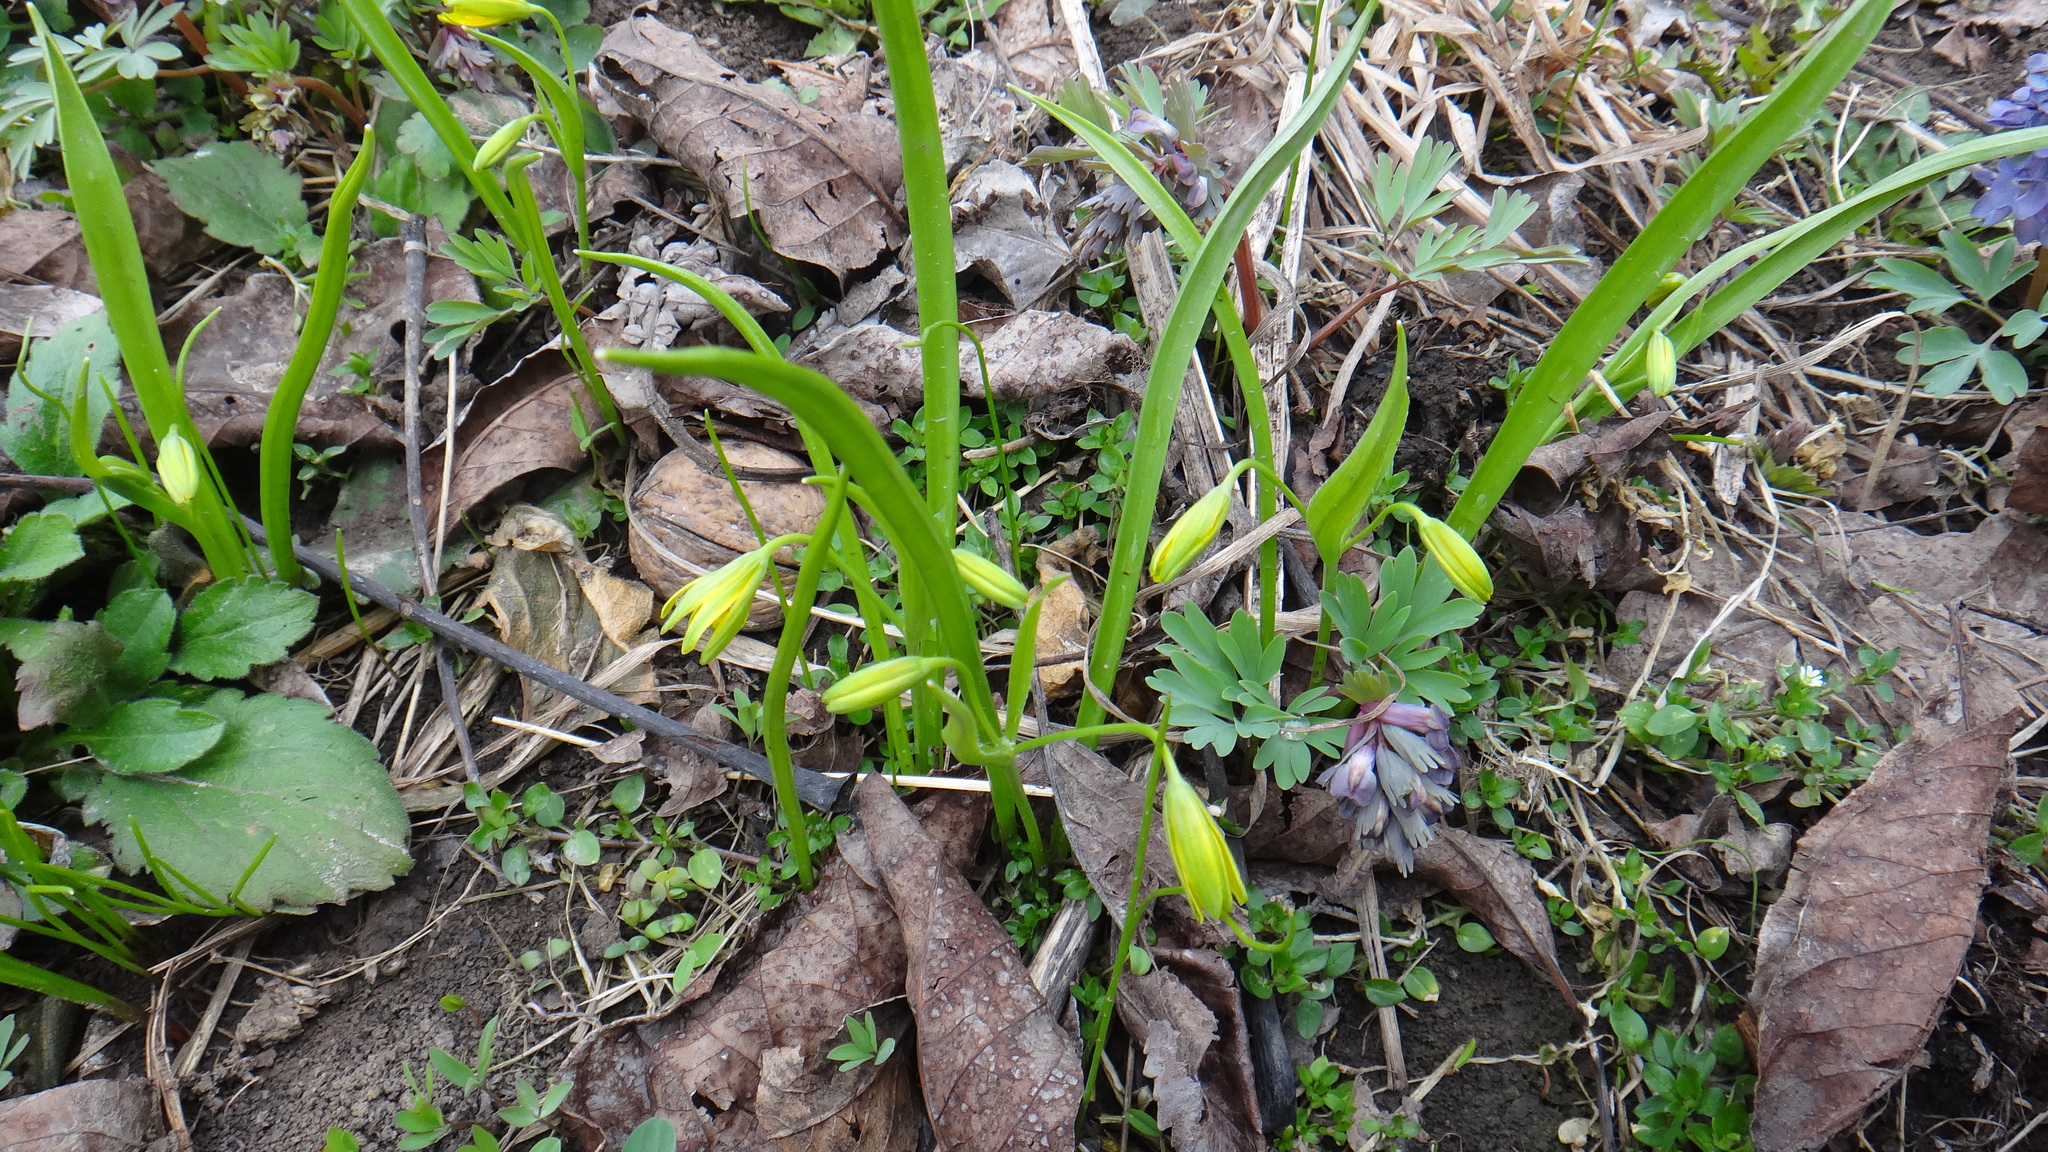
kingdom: Plantae
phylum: Tracheophyta
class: Liliopsida
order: Liliales
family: Liliaceae
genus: Gagea
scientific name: Gagea lutea
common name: Yellow star-of-bethlehem
